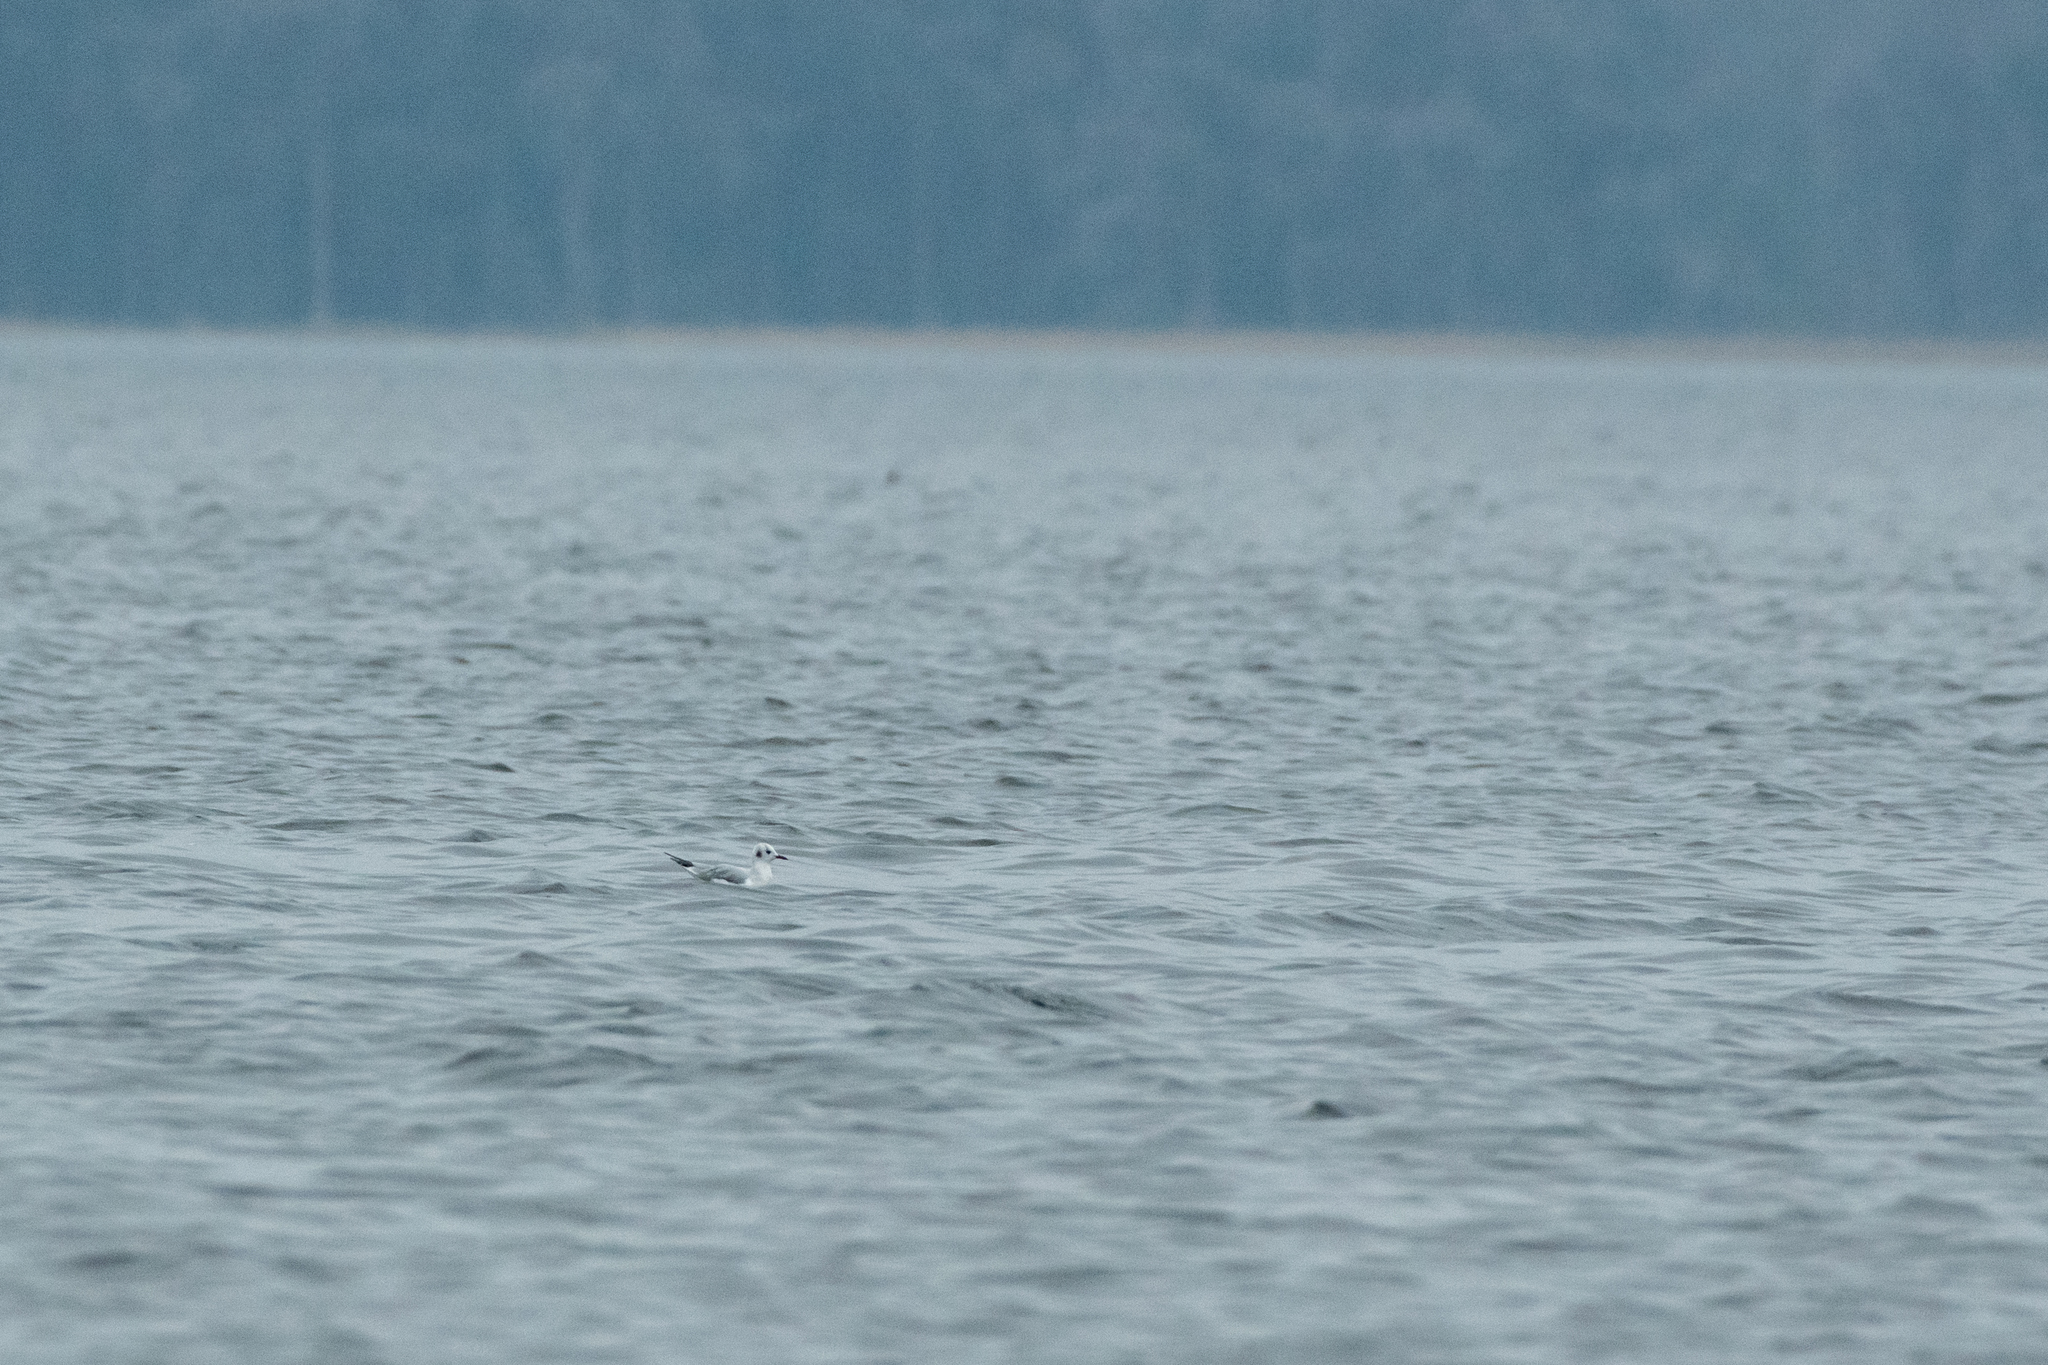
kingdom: Animalia
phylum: Chordata
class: Aves
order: Charadriiformes
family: Laridae
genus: Chroicocephalus
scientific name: Chroicocephalus philadelphia
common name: Bonaparte's gull
